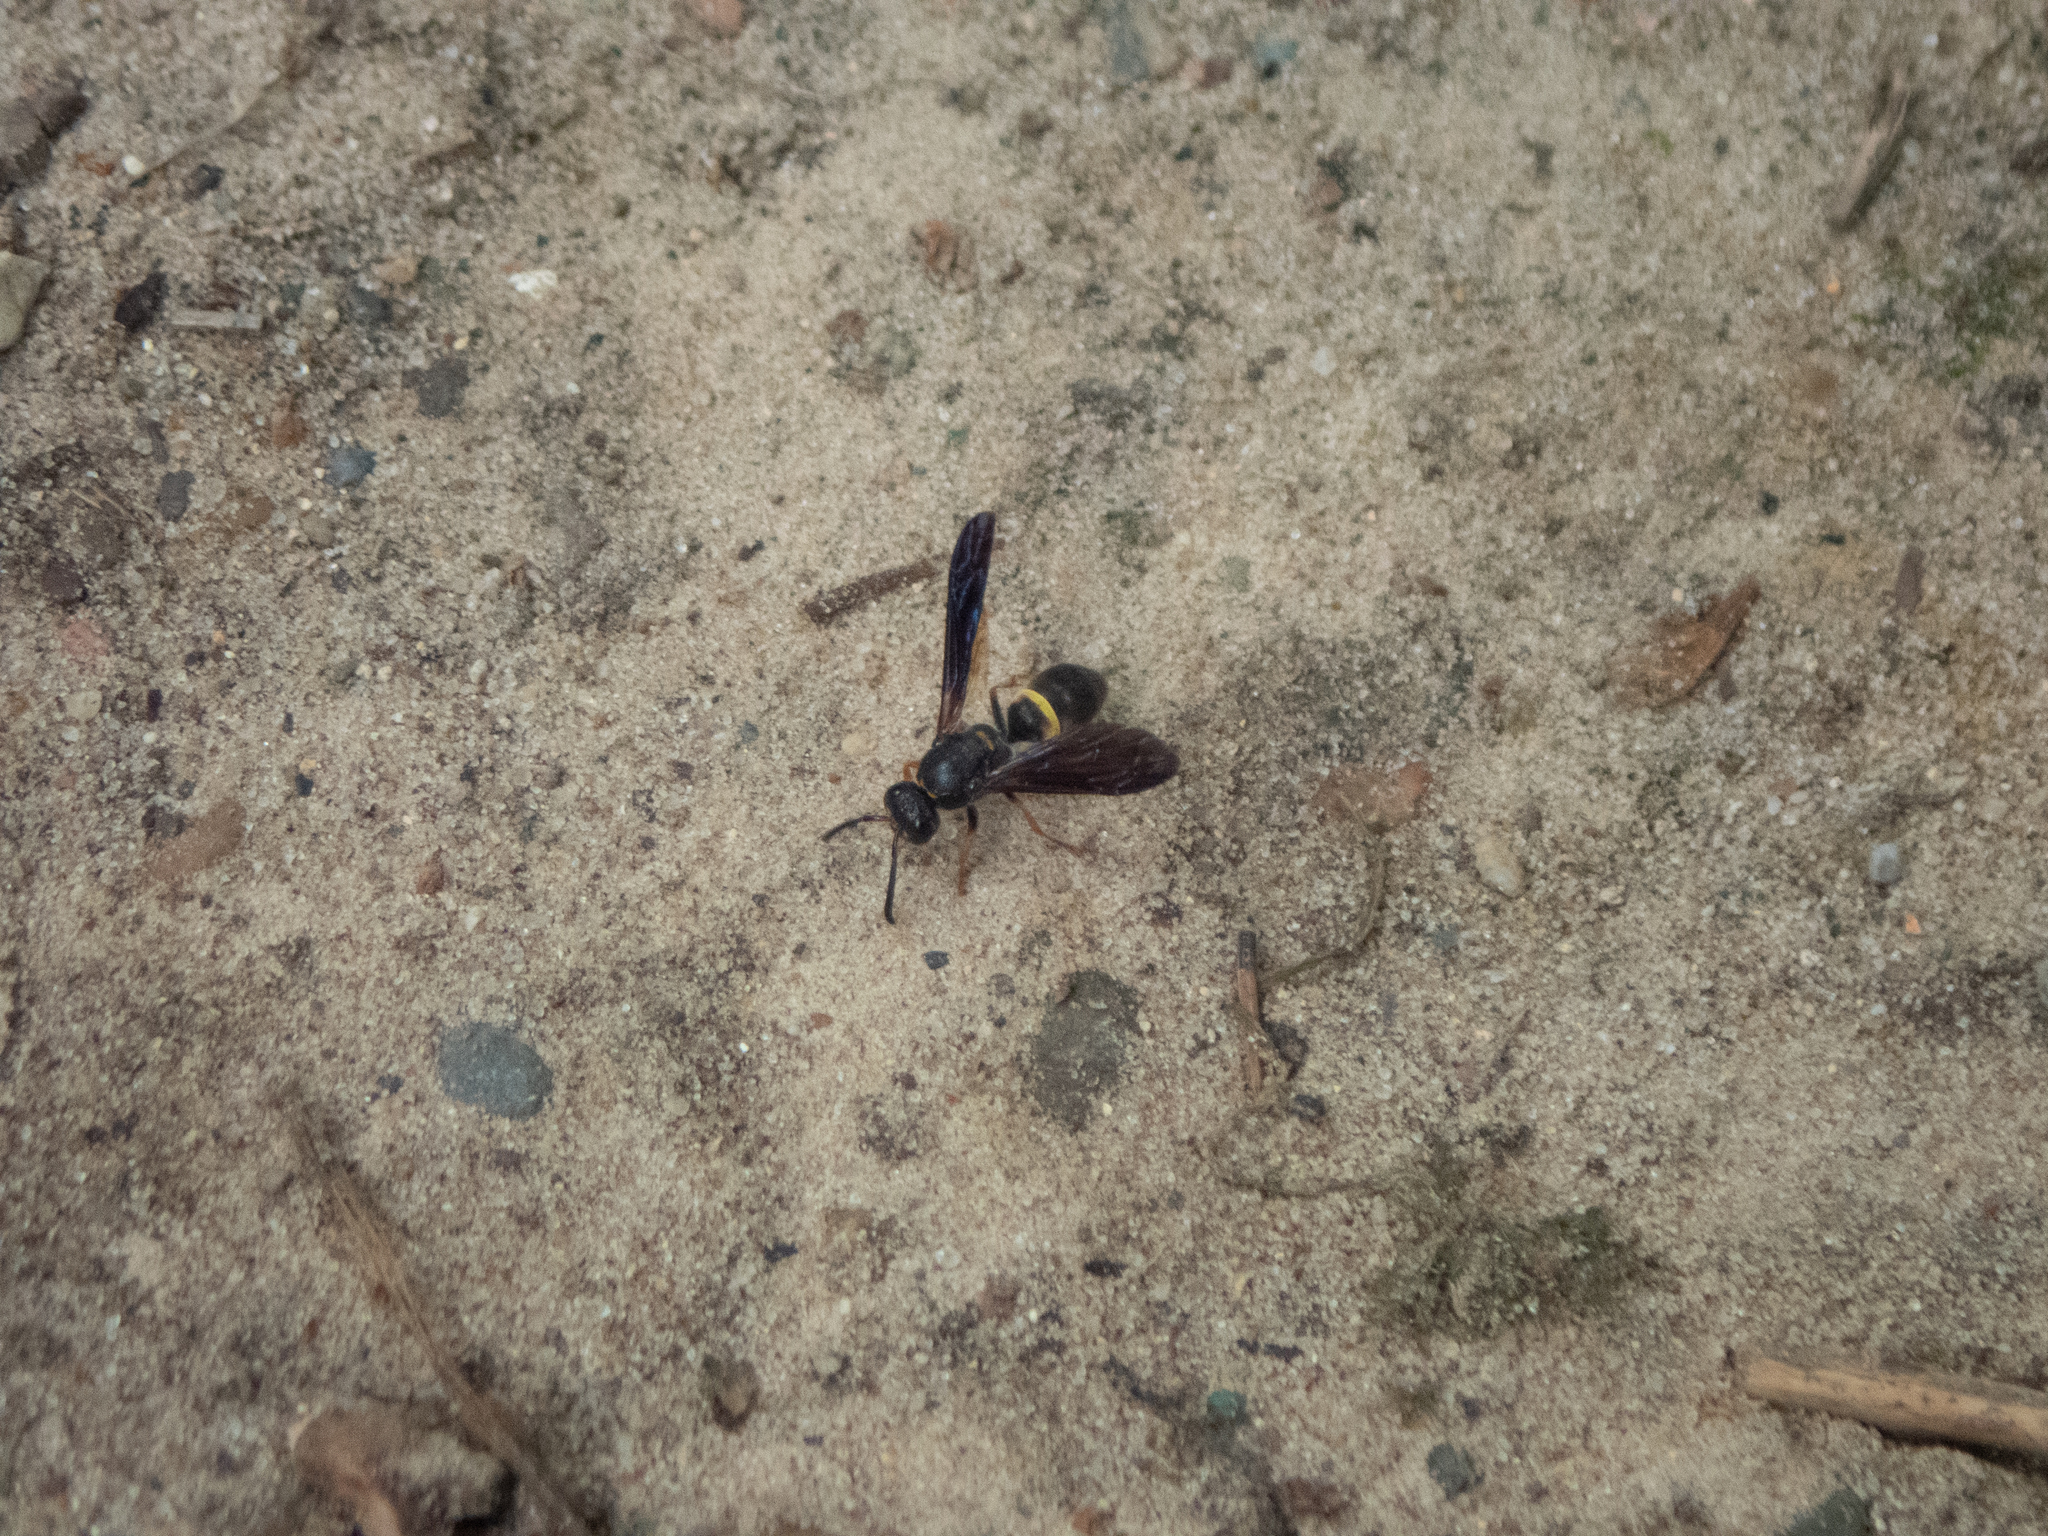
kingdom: Animalia
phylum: Arthropoda
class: Insecta
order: Hymenoptera
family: Vespidae
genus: Ancistrocerus
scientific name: Ancistrocerus unifasciatus
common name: One-banded mason wasp
